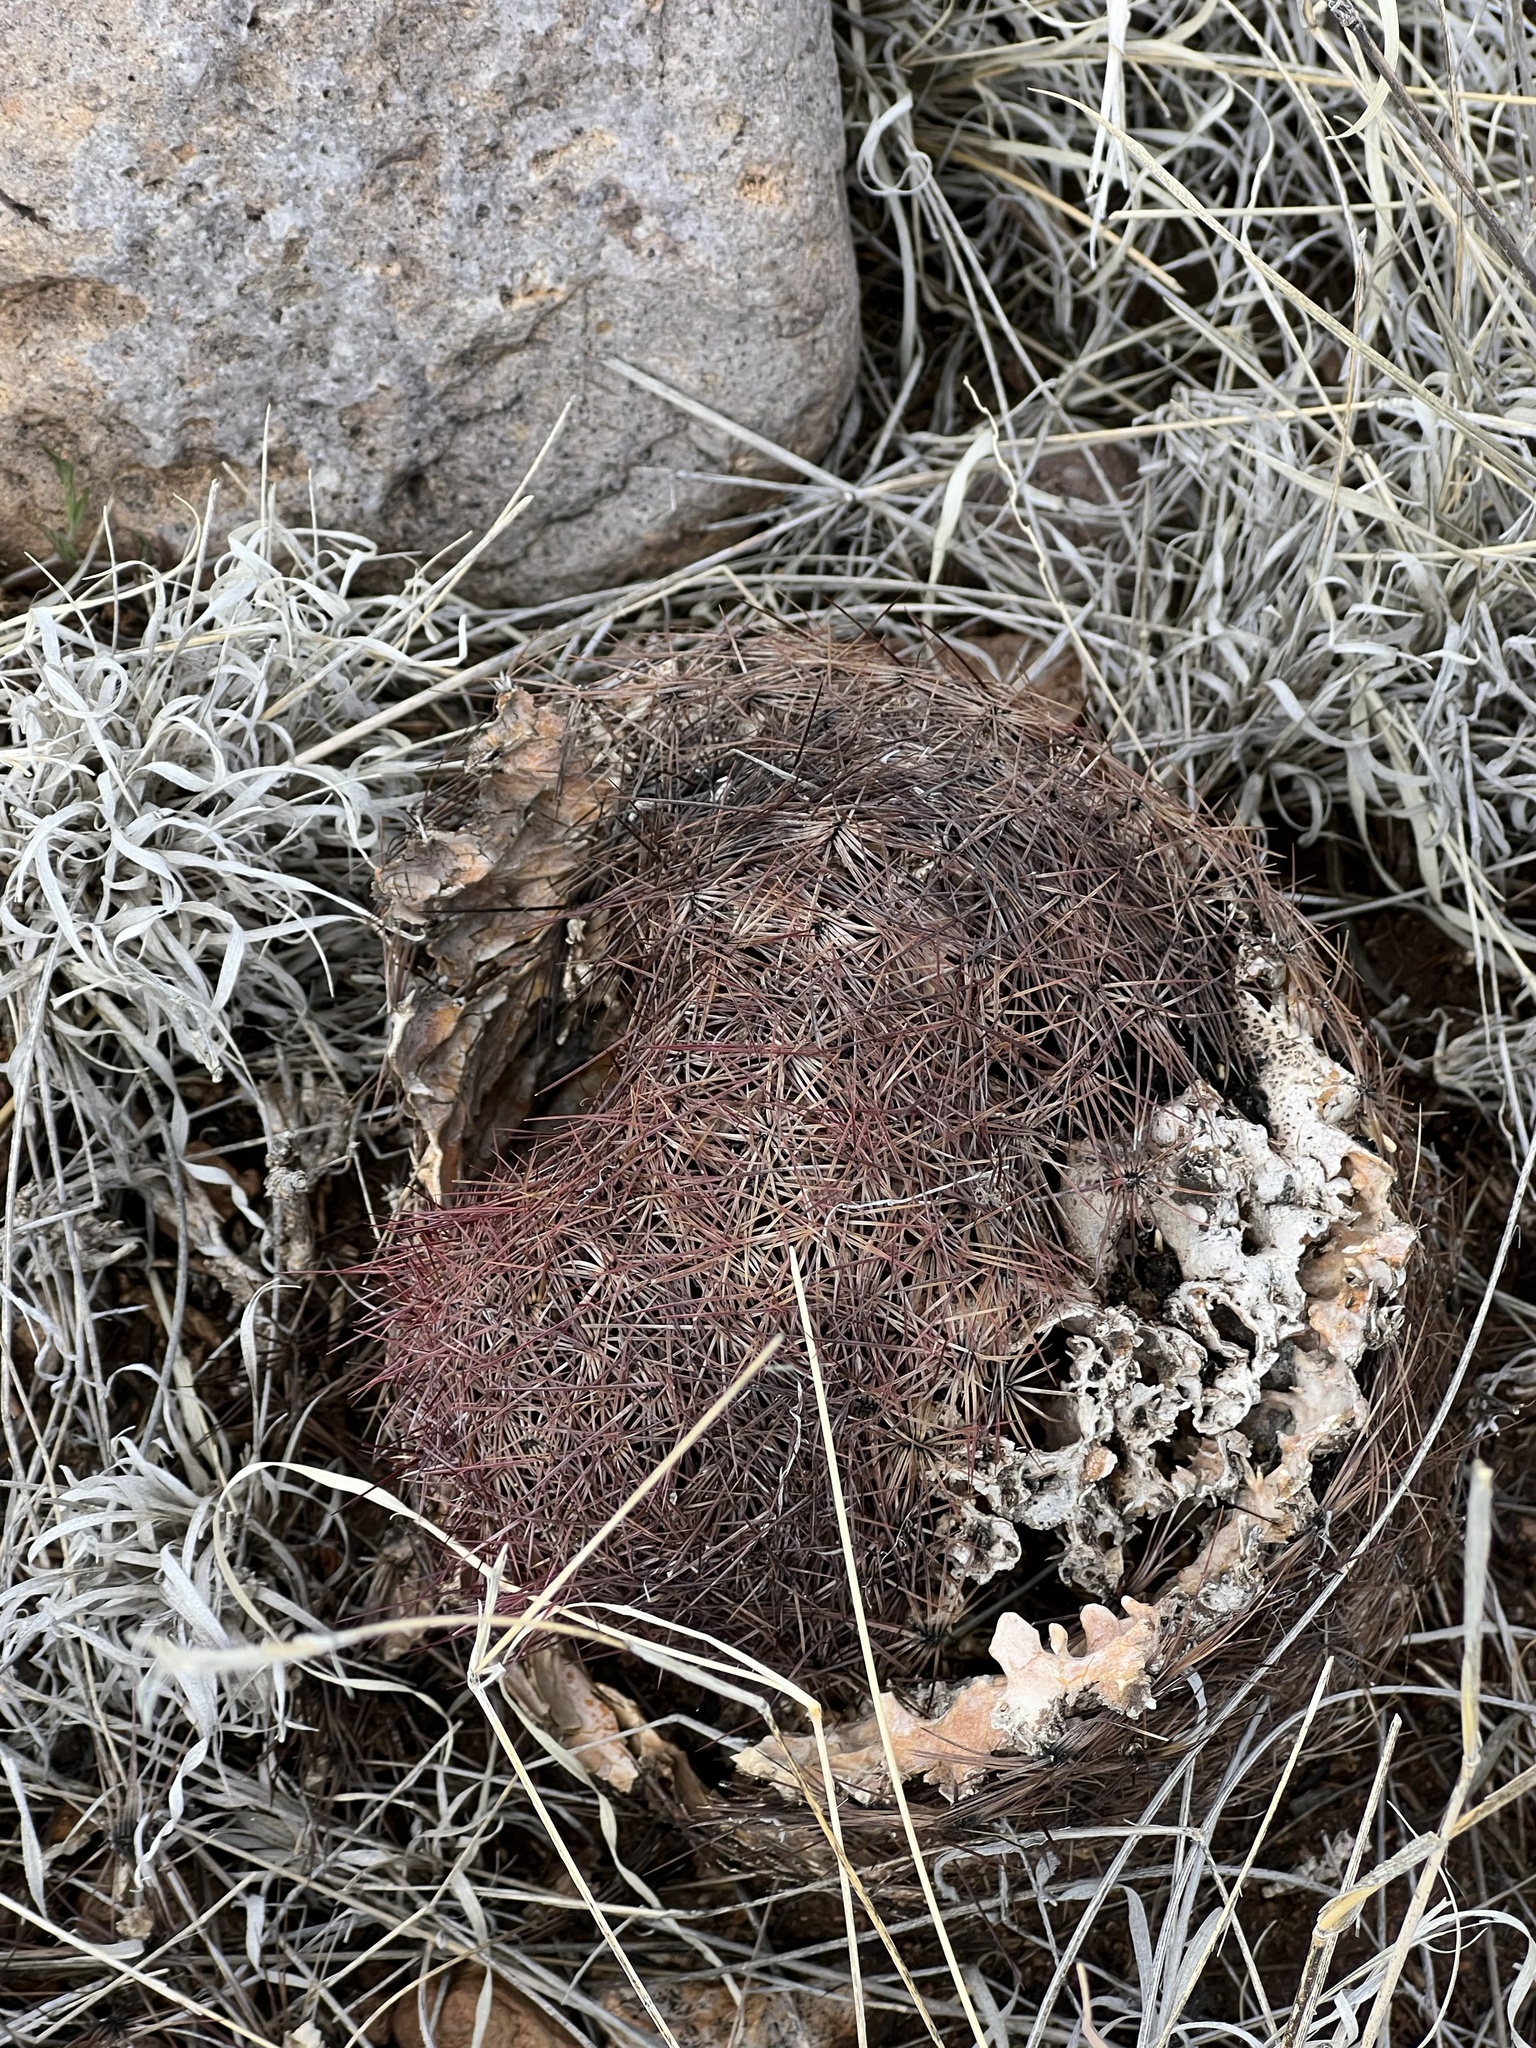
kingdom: Plantae
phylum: Tracheophyta
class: Magnoliopsida
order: Caryophyllales
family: Cactaceae
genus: Sclerocactus
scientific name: Sclerocactus johnsonii
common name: Eight-spine fishhook cactus
